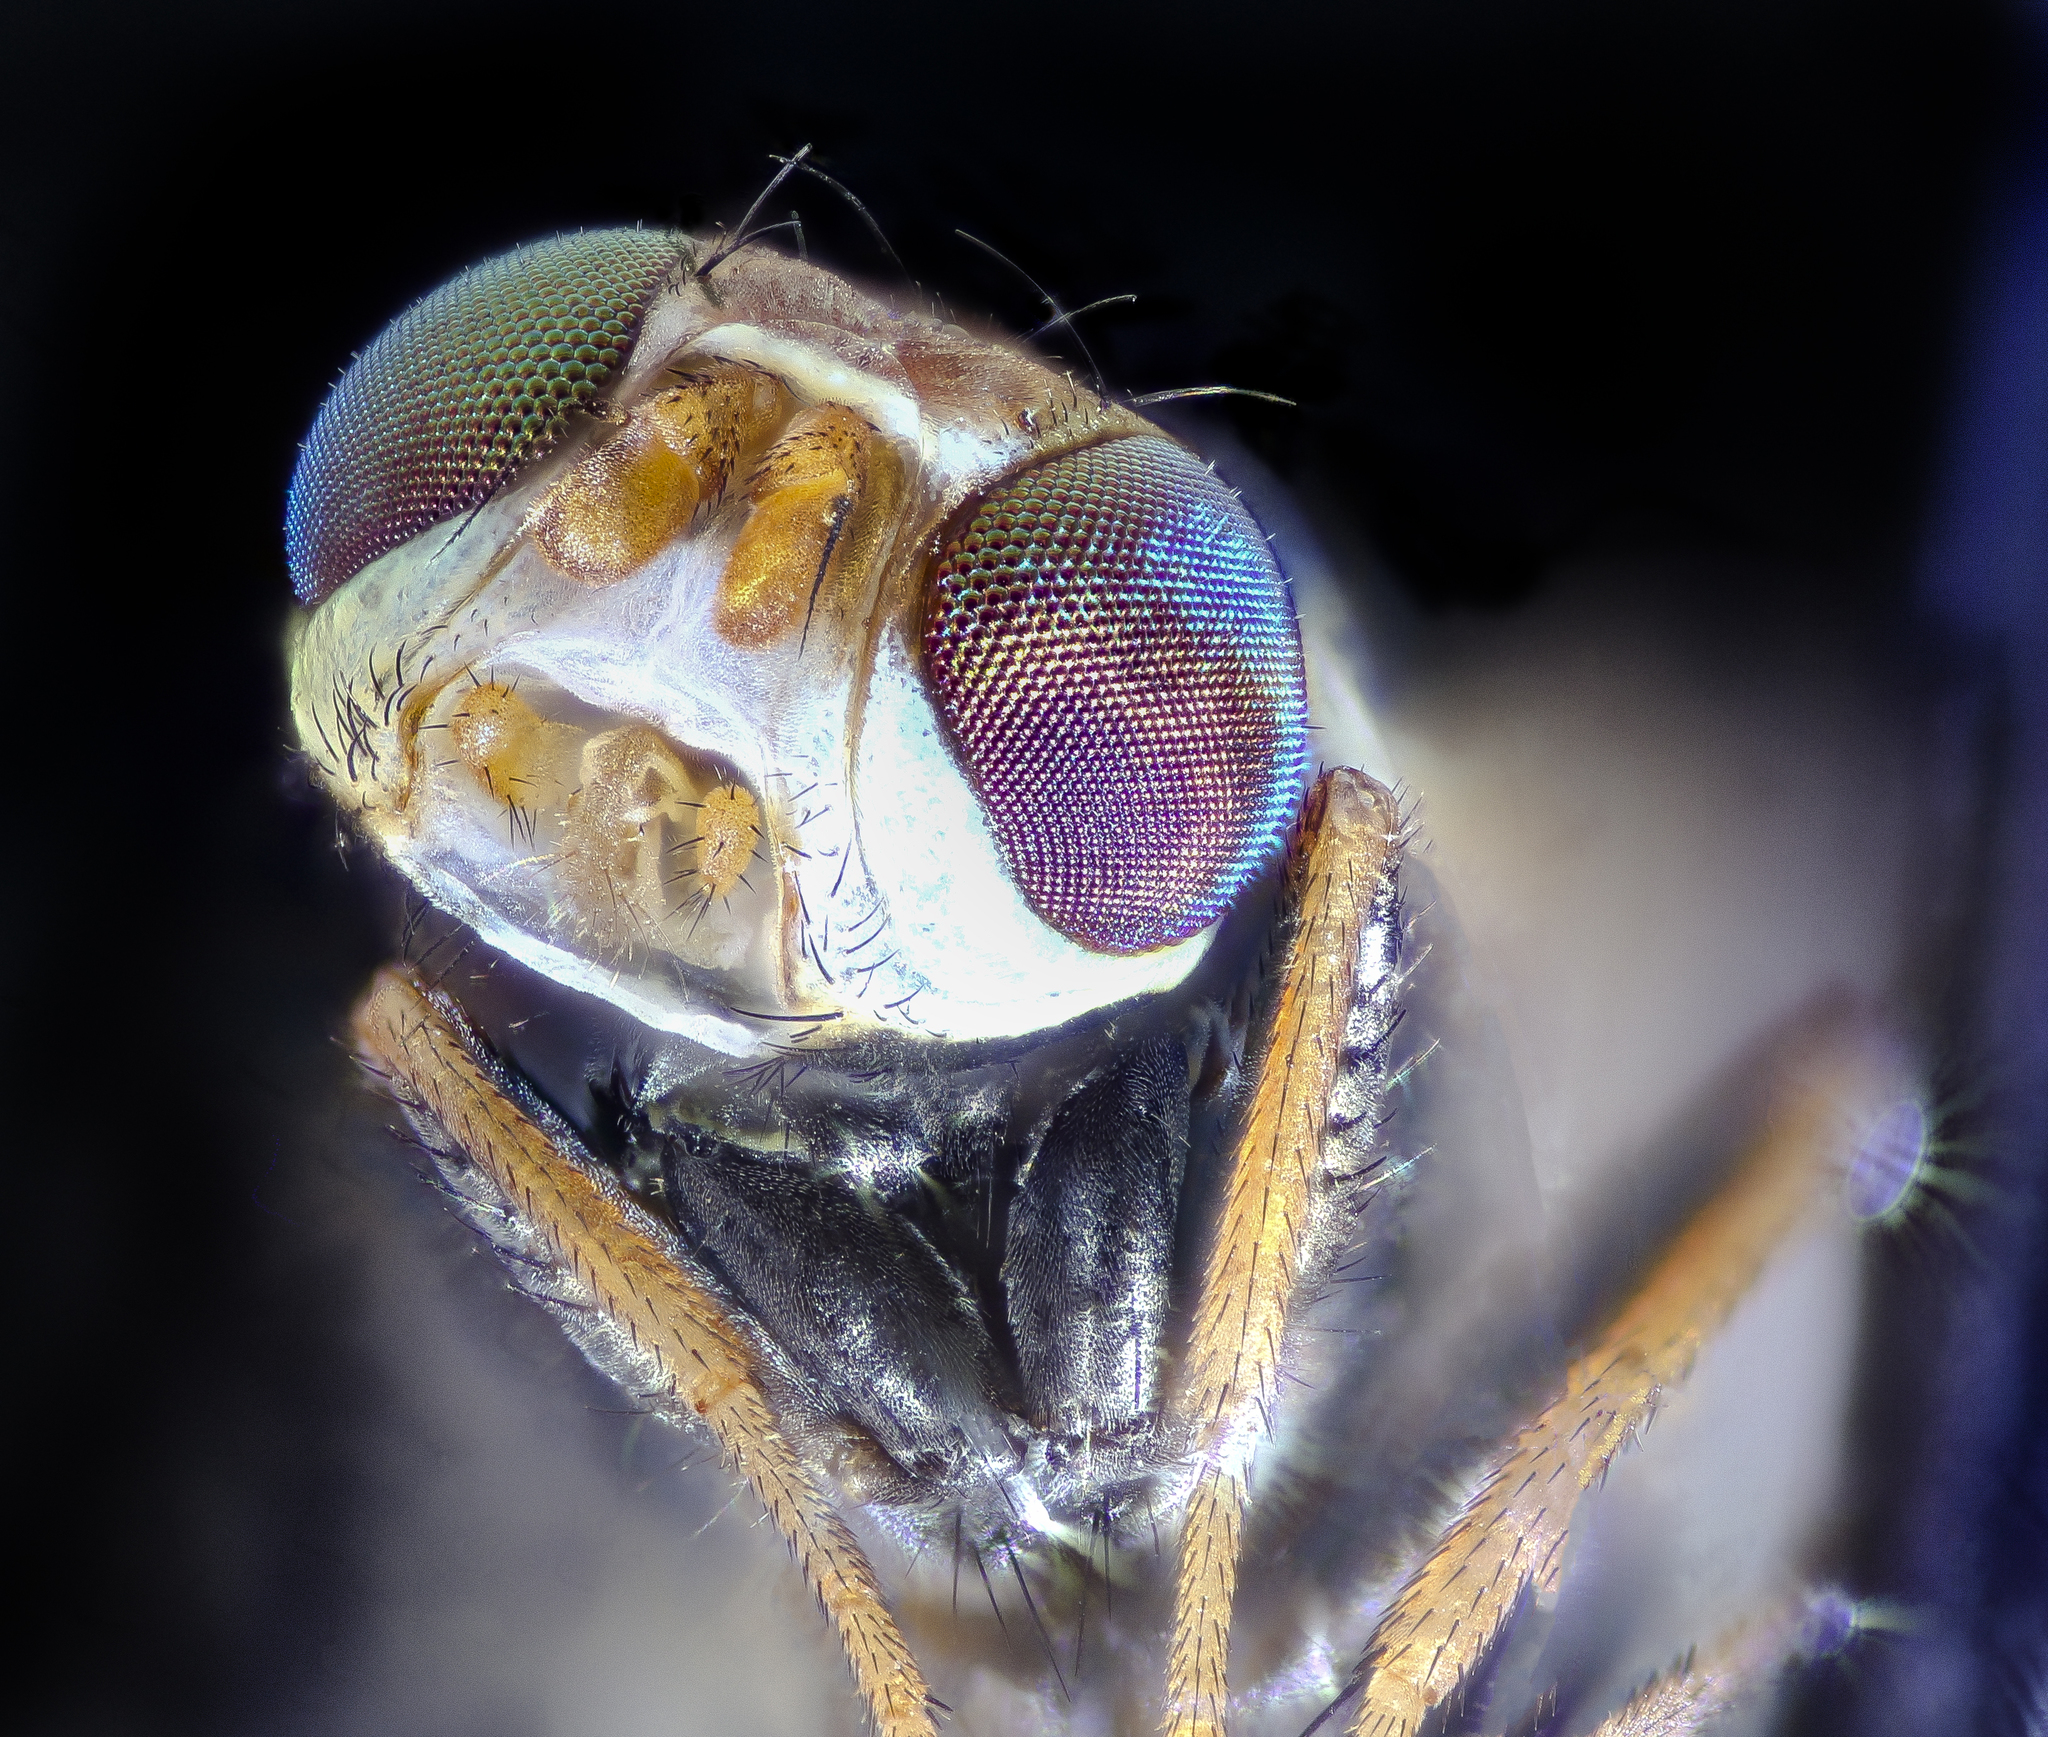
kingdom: Animalia
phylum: Arthropoda
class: Insecta
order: Diptera
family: Tephritidae
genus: Urophora
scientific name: Urophora quadrifasciata
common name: Knapweed seedhead fly
